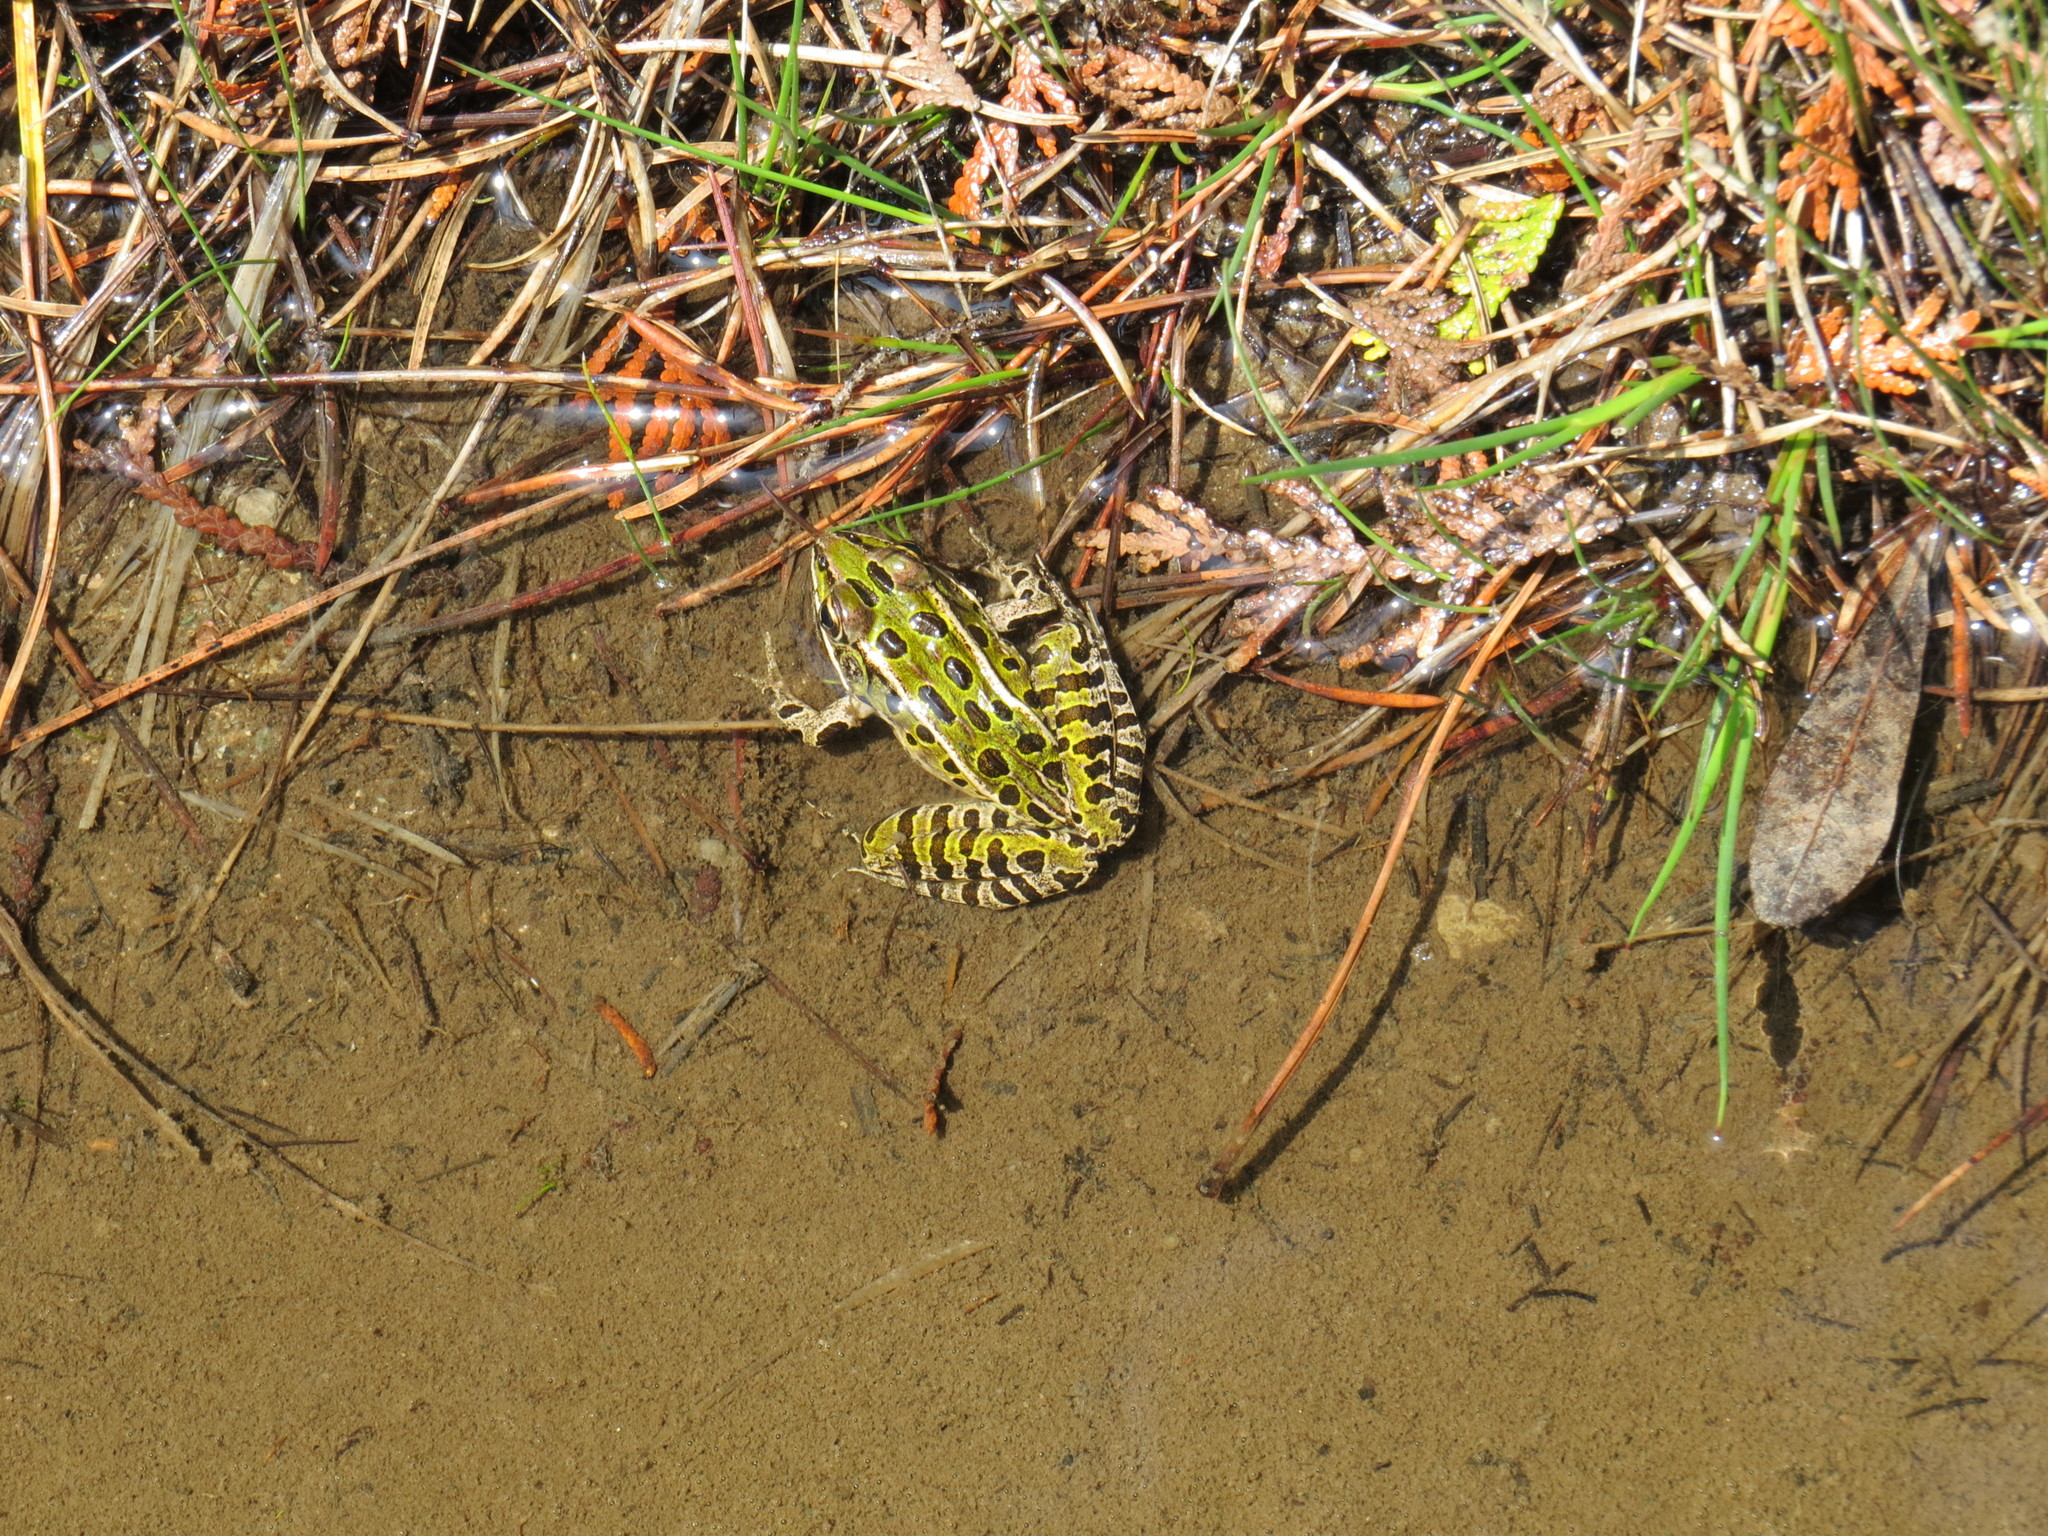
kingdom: Animalia
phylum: Chordata
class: Amphibia
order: Anura
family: Ranidae
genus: Lithobates
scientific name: Lithobates pipiens
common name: Northern leopard frog
